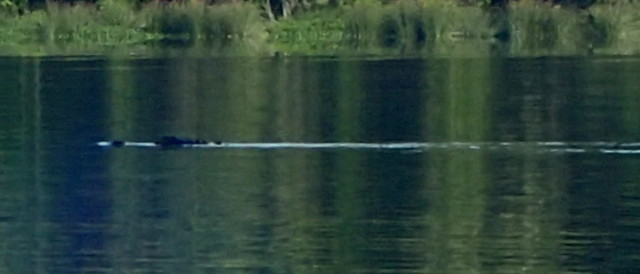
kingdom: Animalia
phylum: Chordata
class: Crocodylia
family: Alligatoridae
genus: Alligator
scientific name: Alligator mississippiensis
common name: American alligator
